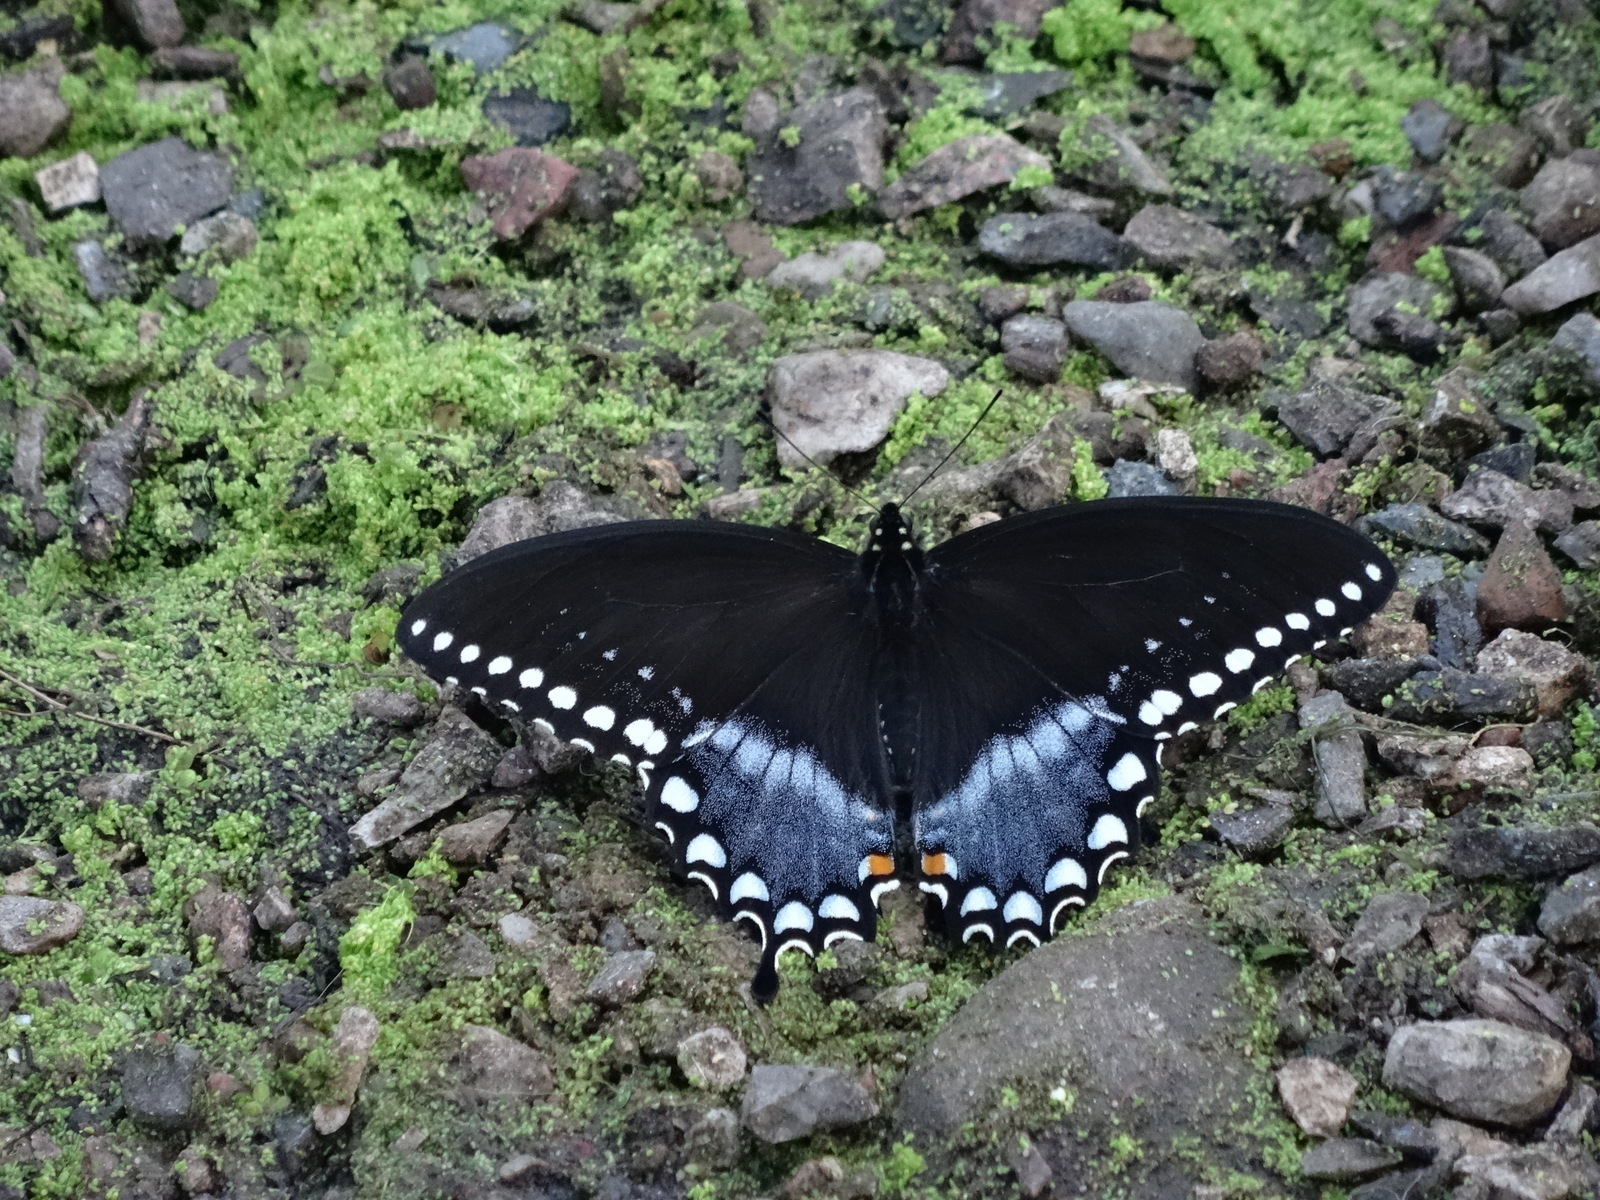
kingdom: Animalia
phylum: Arthropoda
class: Insecta
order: Lepidoptera
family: Papilionidae
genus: Papilio
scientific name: Papilio troilus
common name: Spicebush swallowtail
